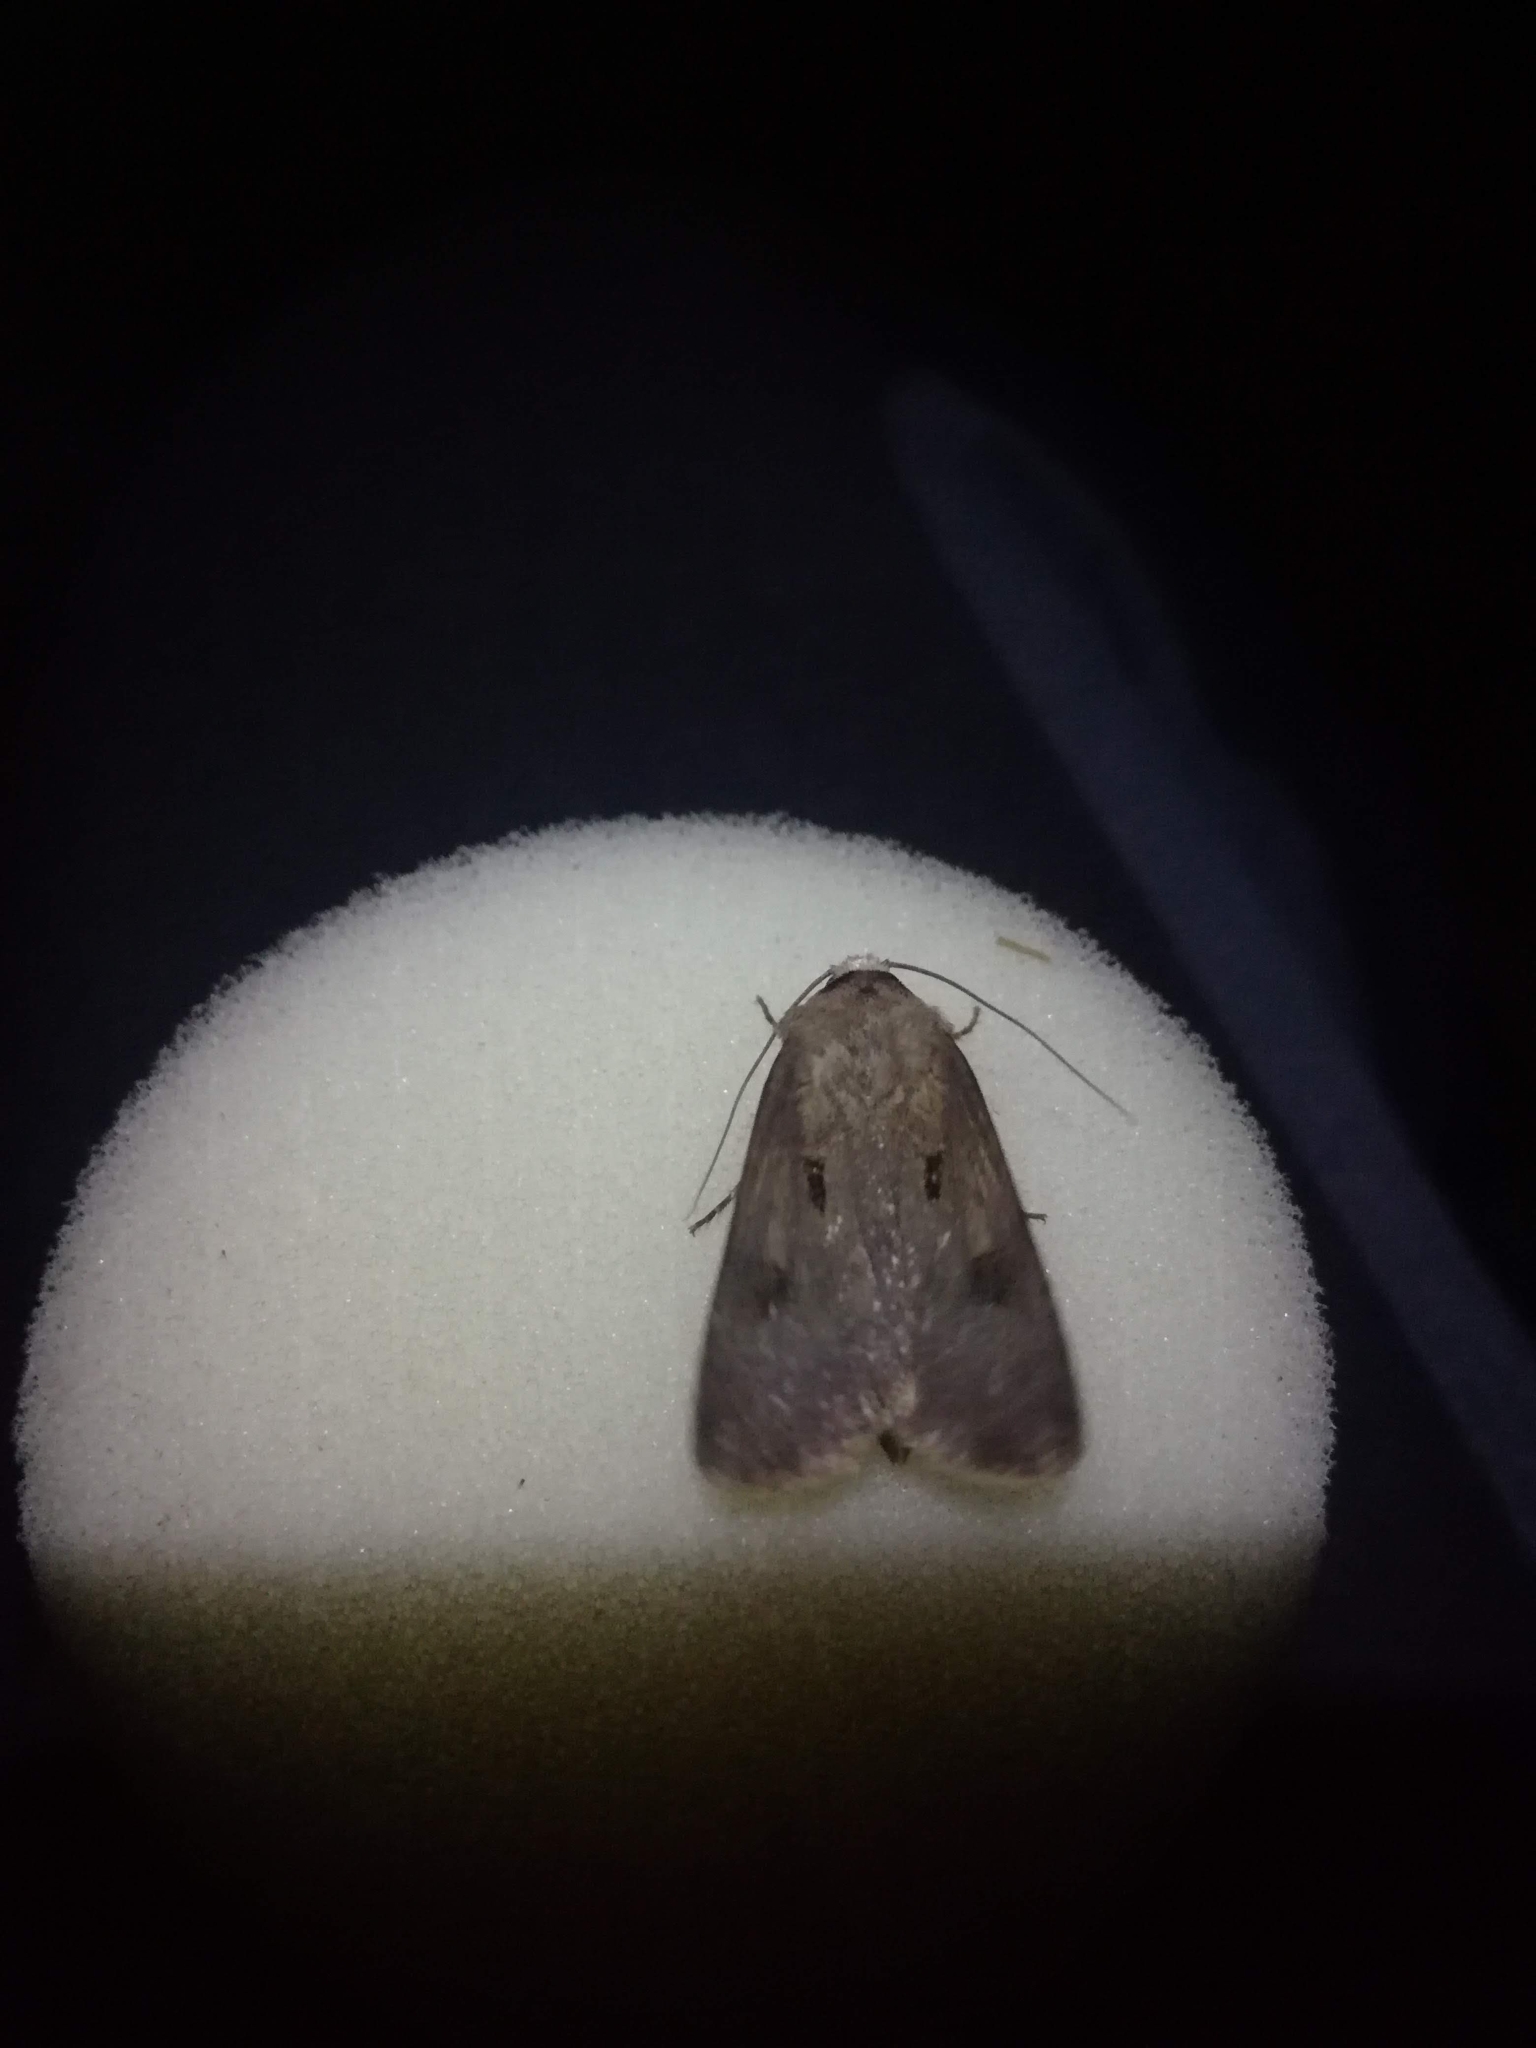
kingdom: Animalia
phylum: Arthropoda
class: Insecta
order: Lepidoptera
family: Noctuidae
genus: Agrotis
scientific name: Agrotis exclamationis
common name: Heart and dart
